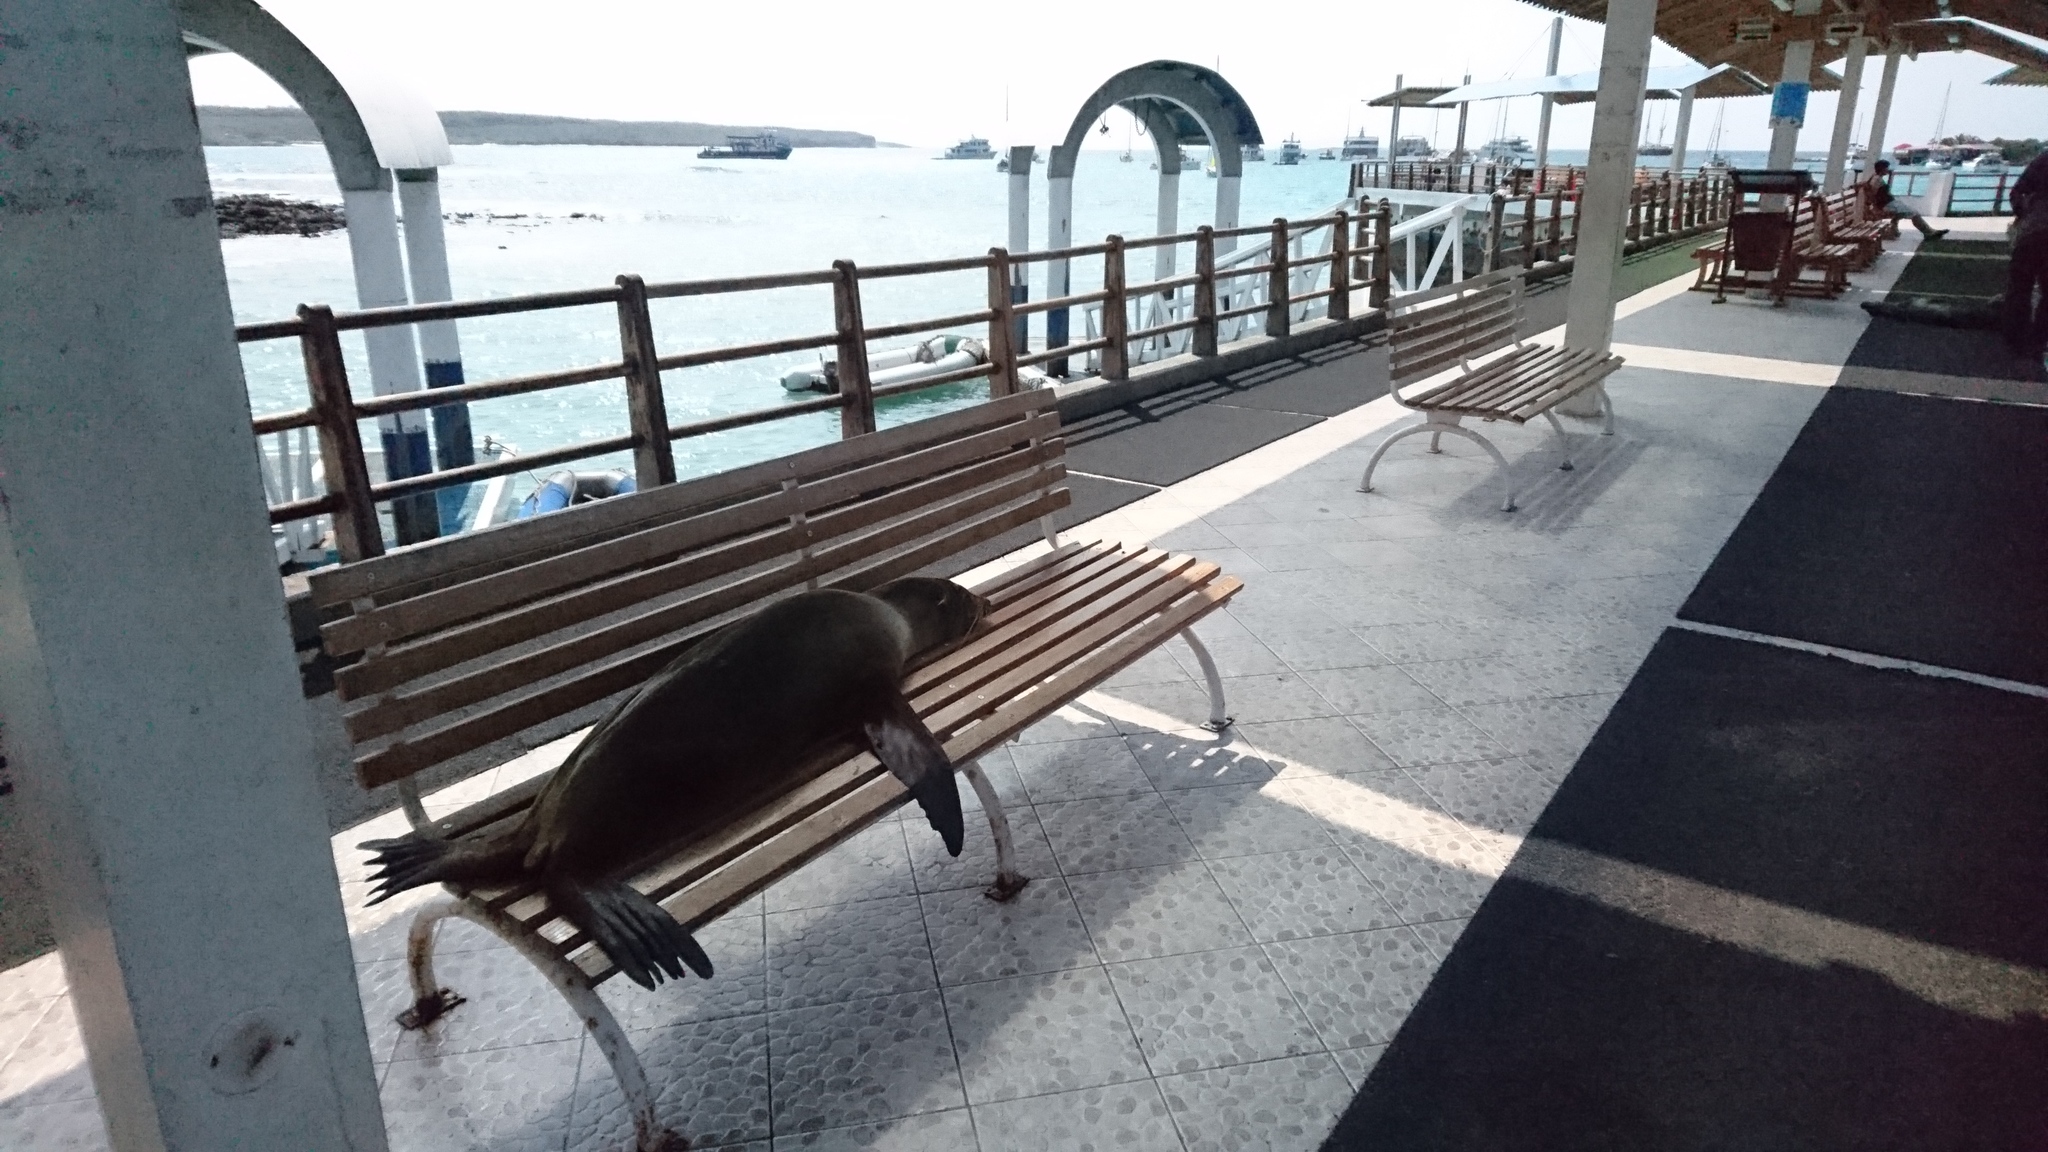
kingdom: Animalia
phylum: Chordata
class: Mammalia
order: Carnivora
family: Otariidae
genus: Zalophus
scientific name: Zalophus wollebaeki
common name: Galapagos sea lion
